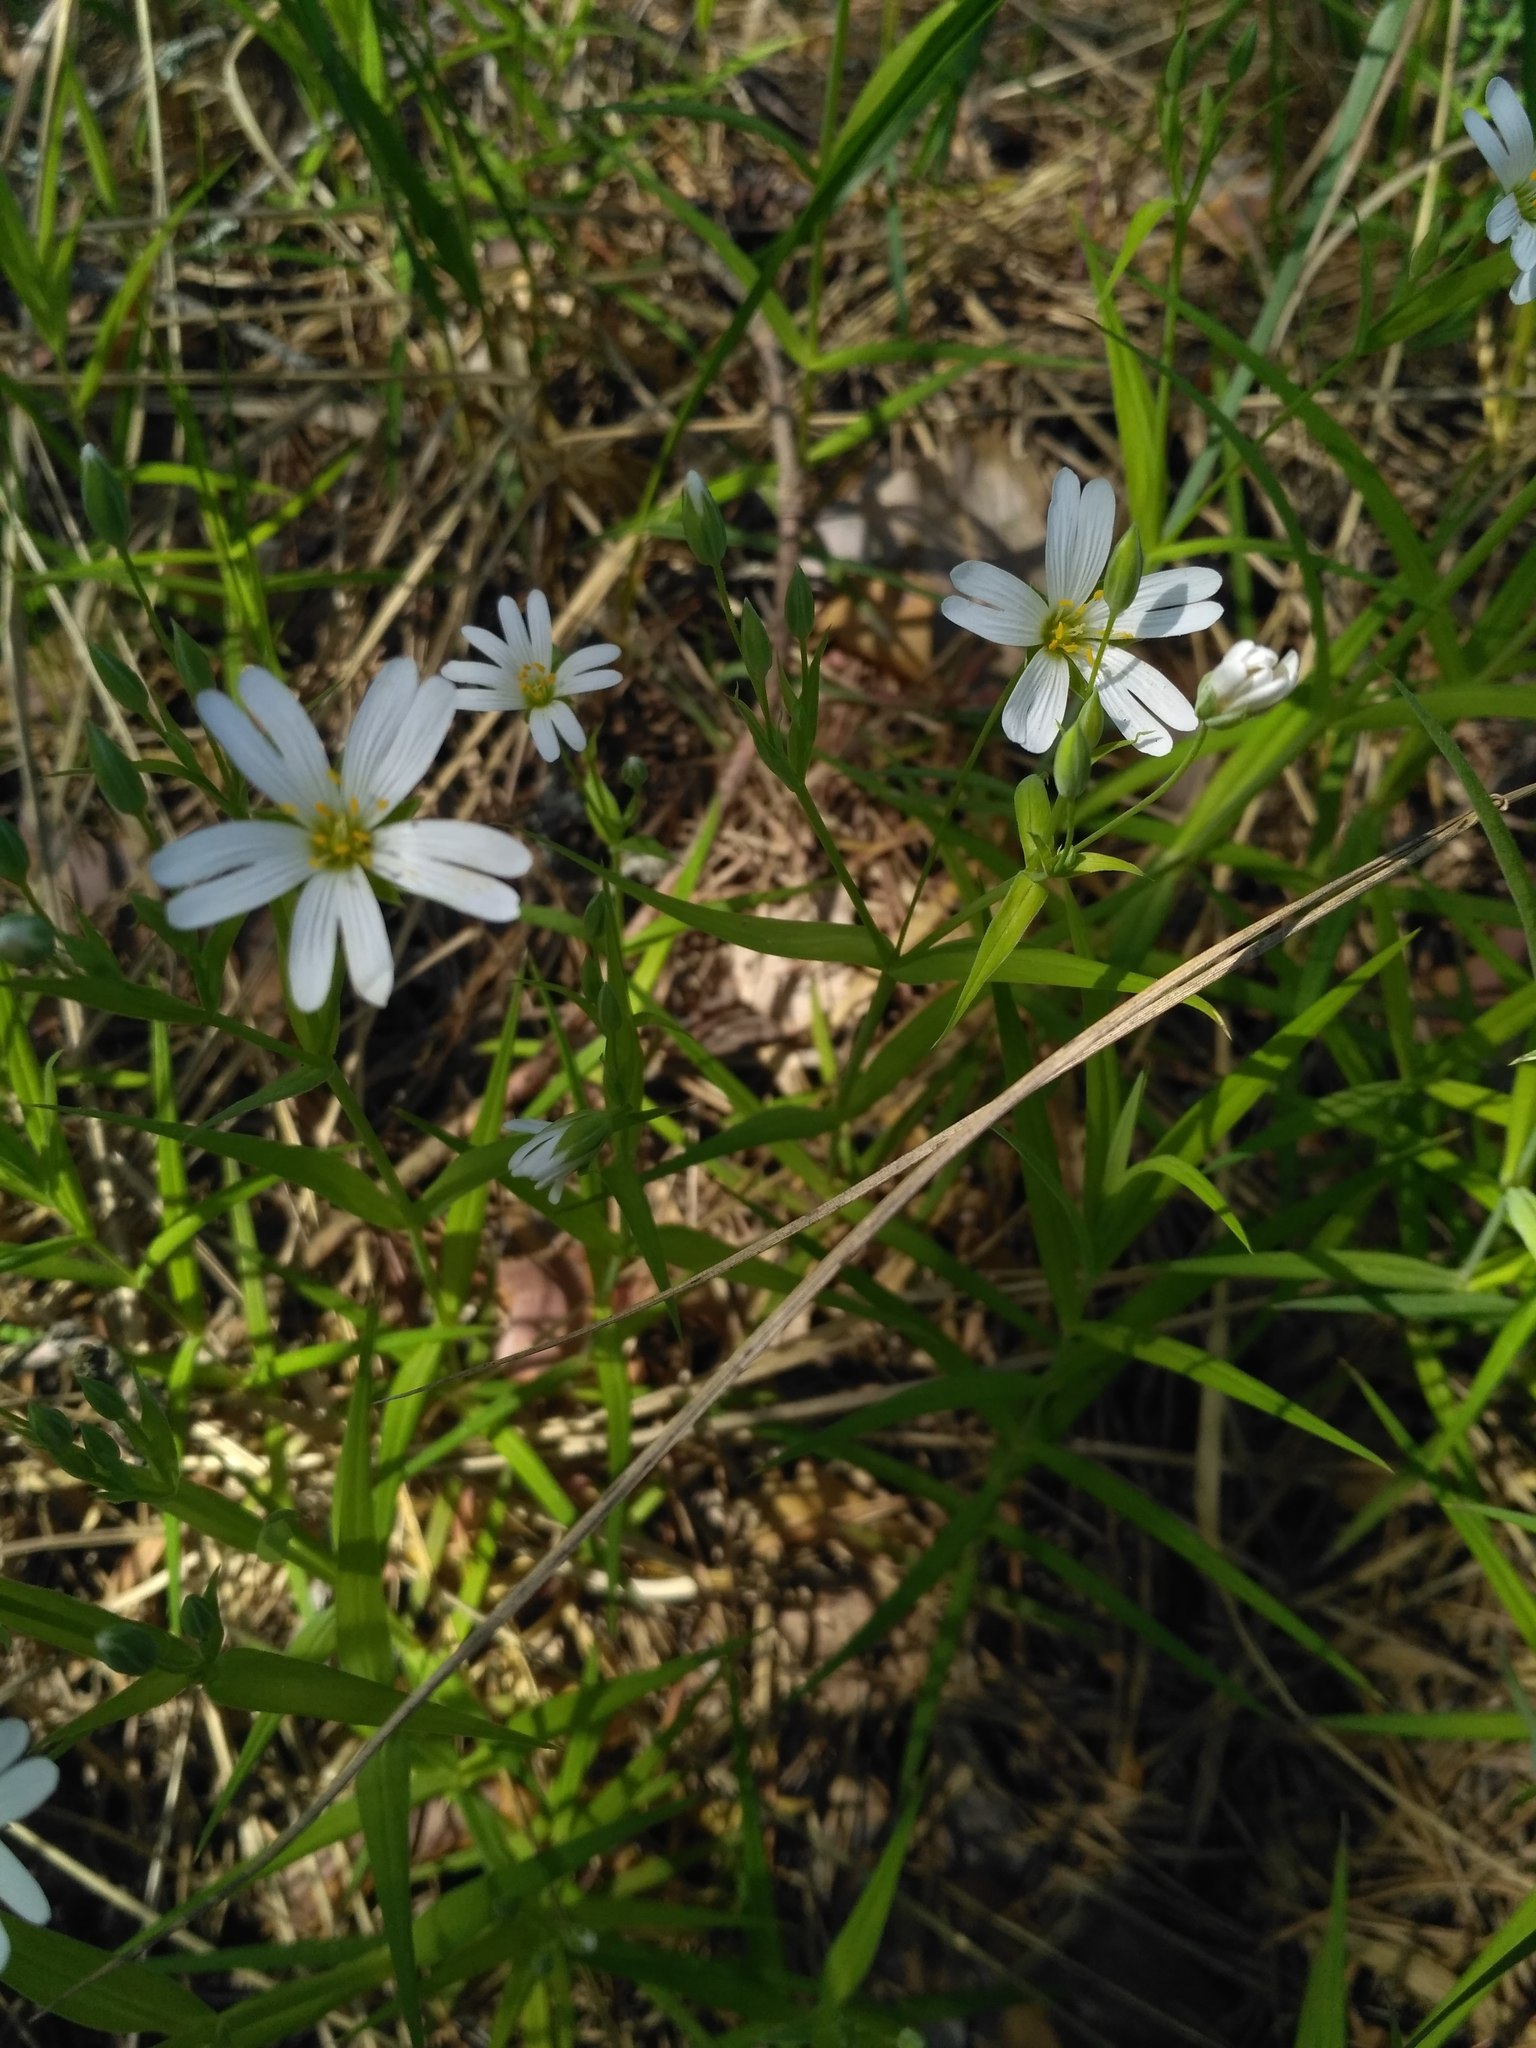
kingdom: Plantae
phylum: Tracheophyta
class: Magnoliopsida
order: Caryophyllales
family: Caryophyllaceae
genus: Rabelera
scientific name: Rabelera holostea
